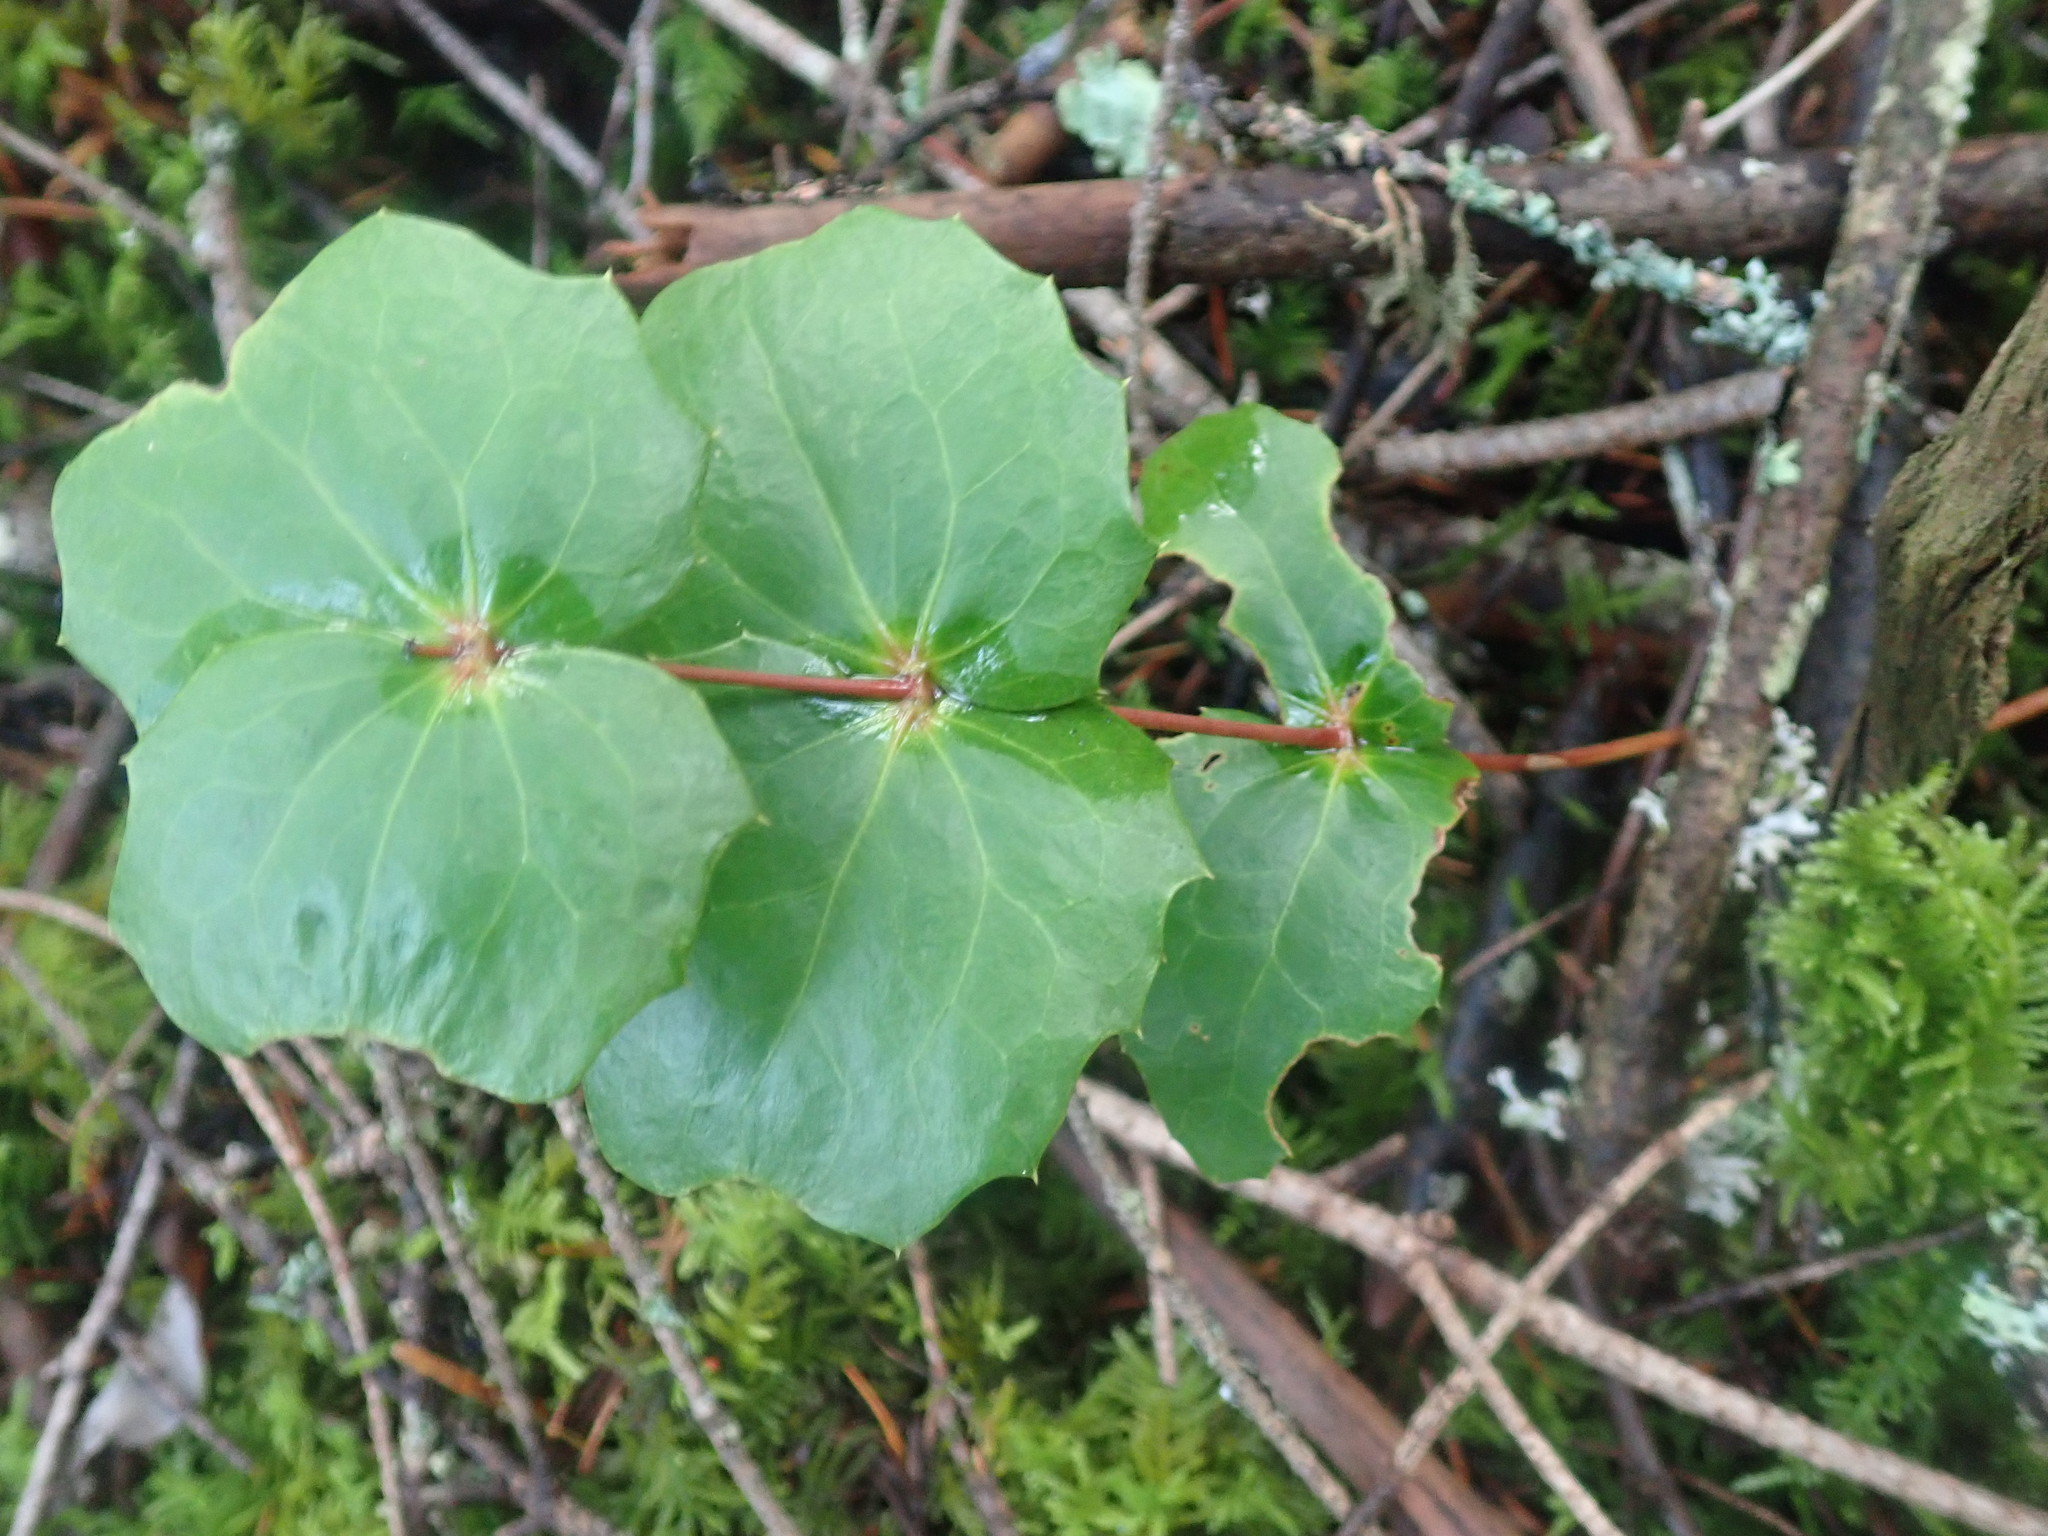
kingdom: Plantae
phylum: Tracheophyta
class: Magnoliopsida
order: Ranunculales
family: Berberidaceae
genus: Mahonia
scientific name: Mahonia nervosa
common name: Cascade oregon-grape
